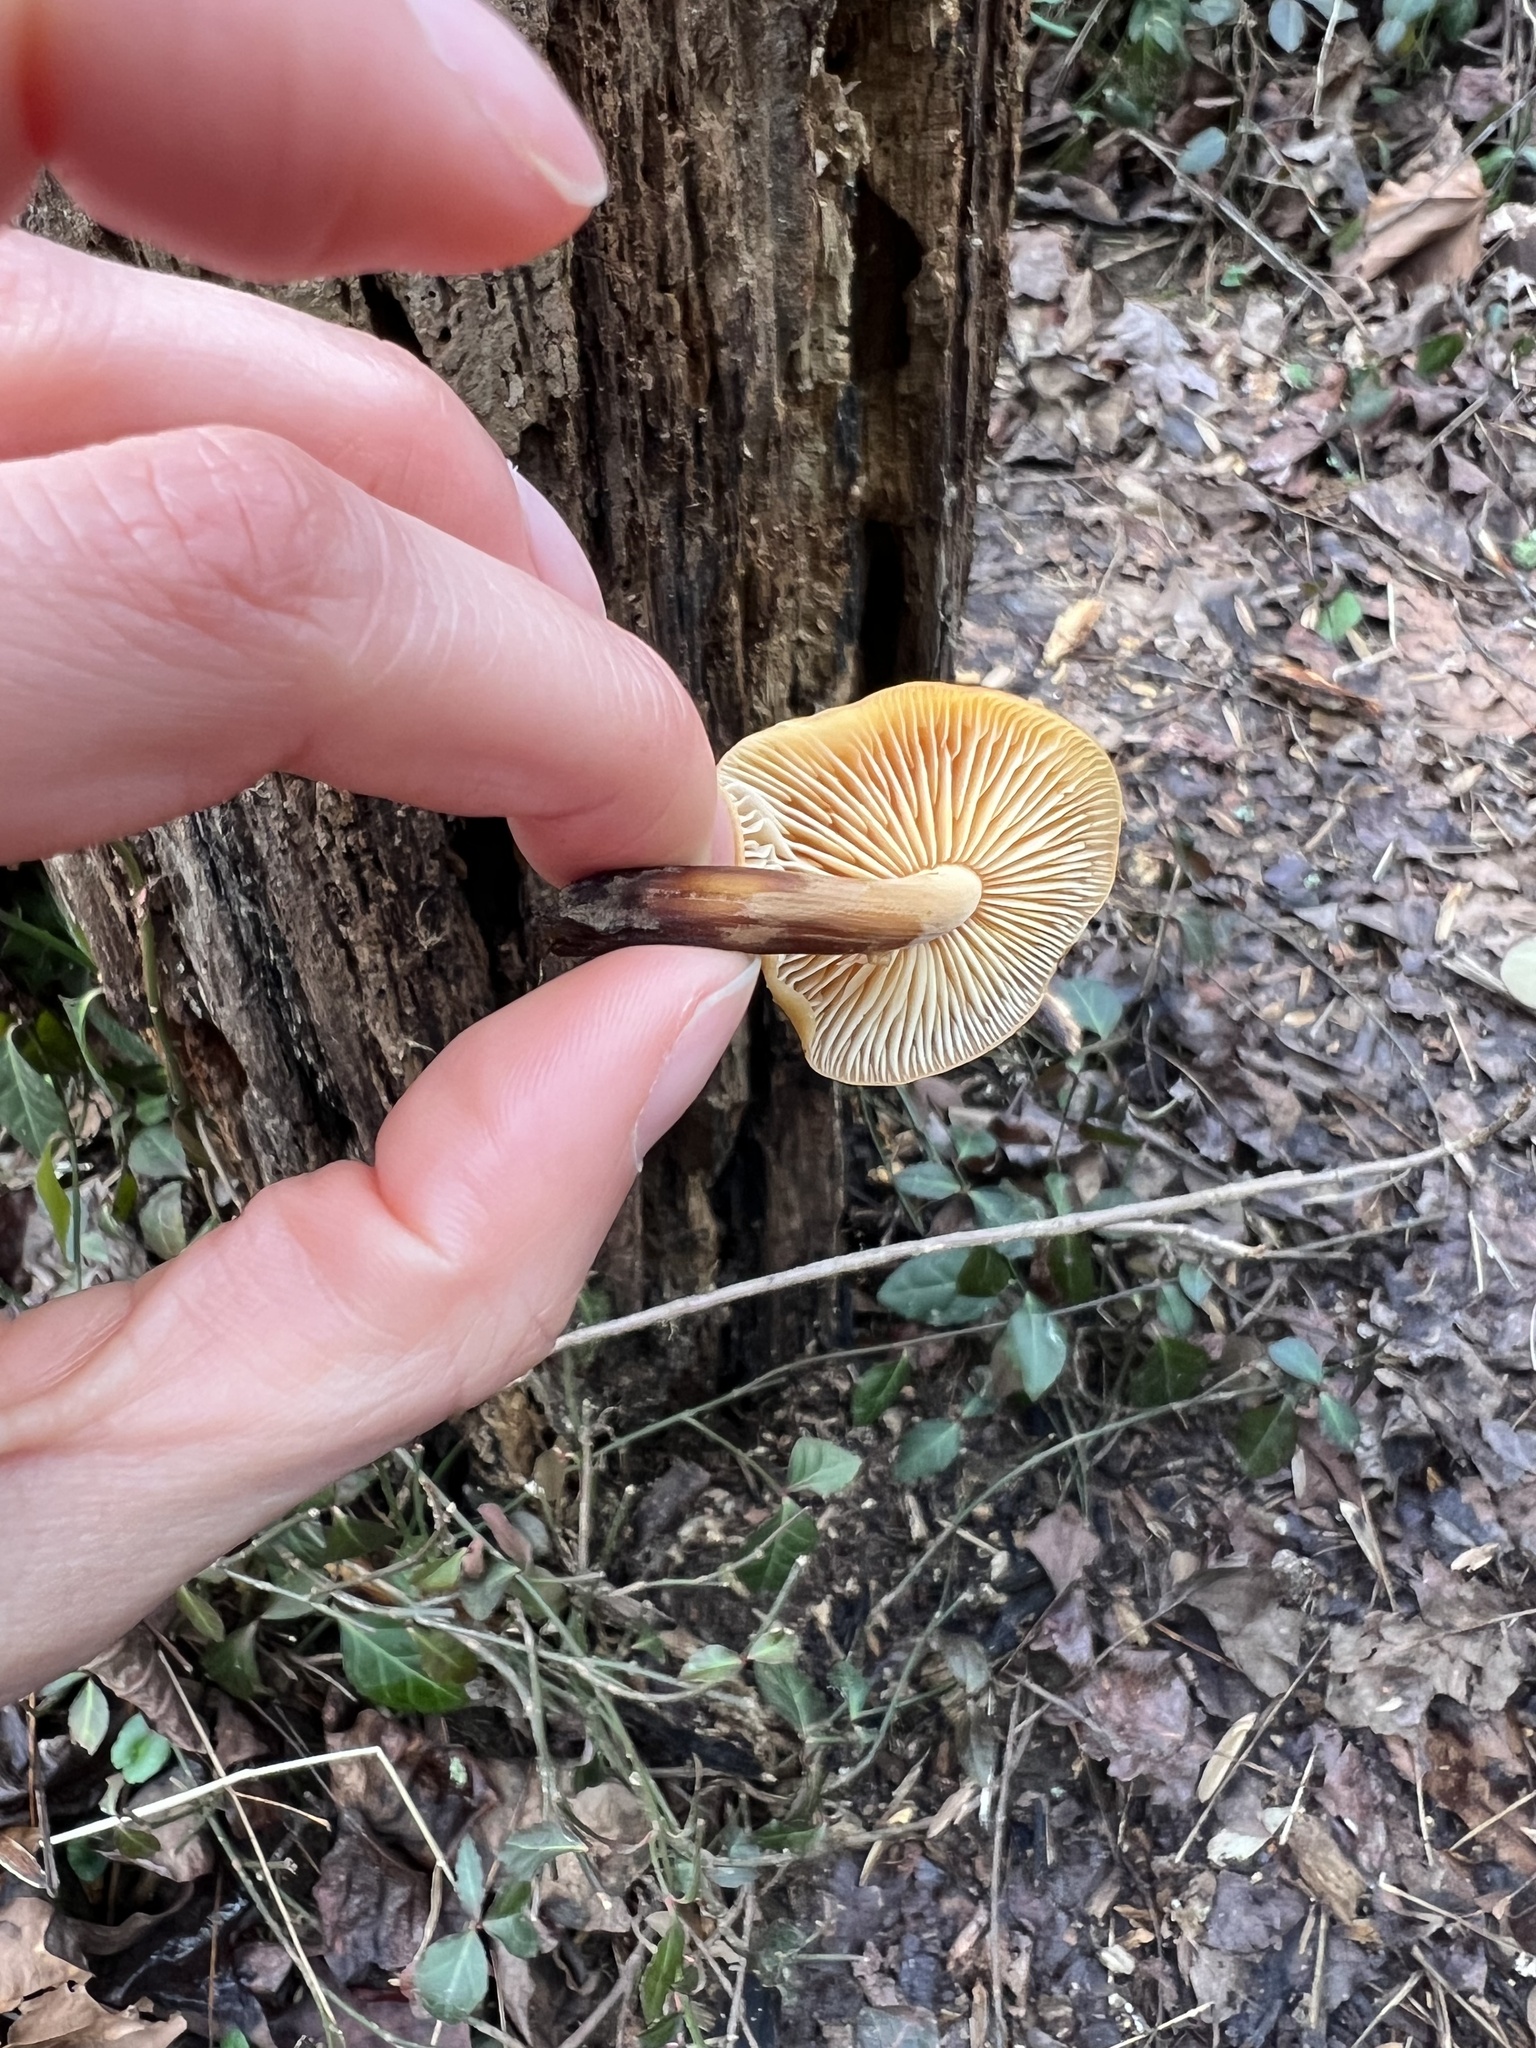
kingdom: Fungi
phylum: Basidiomycota
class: Agaricomycetes
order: Agaricales
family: Physalacriaceae
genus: Flammulina
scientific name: Flammulina velutipes
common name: Velvet shank
